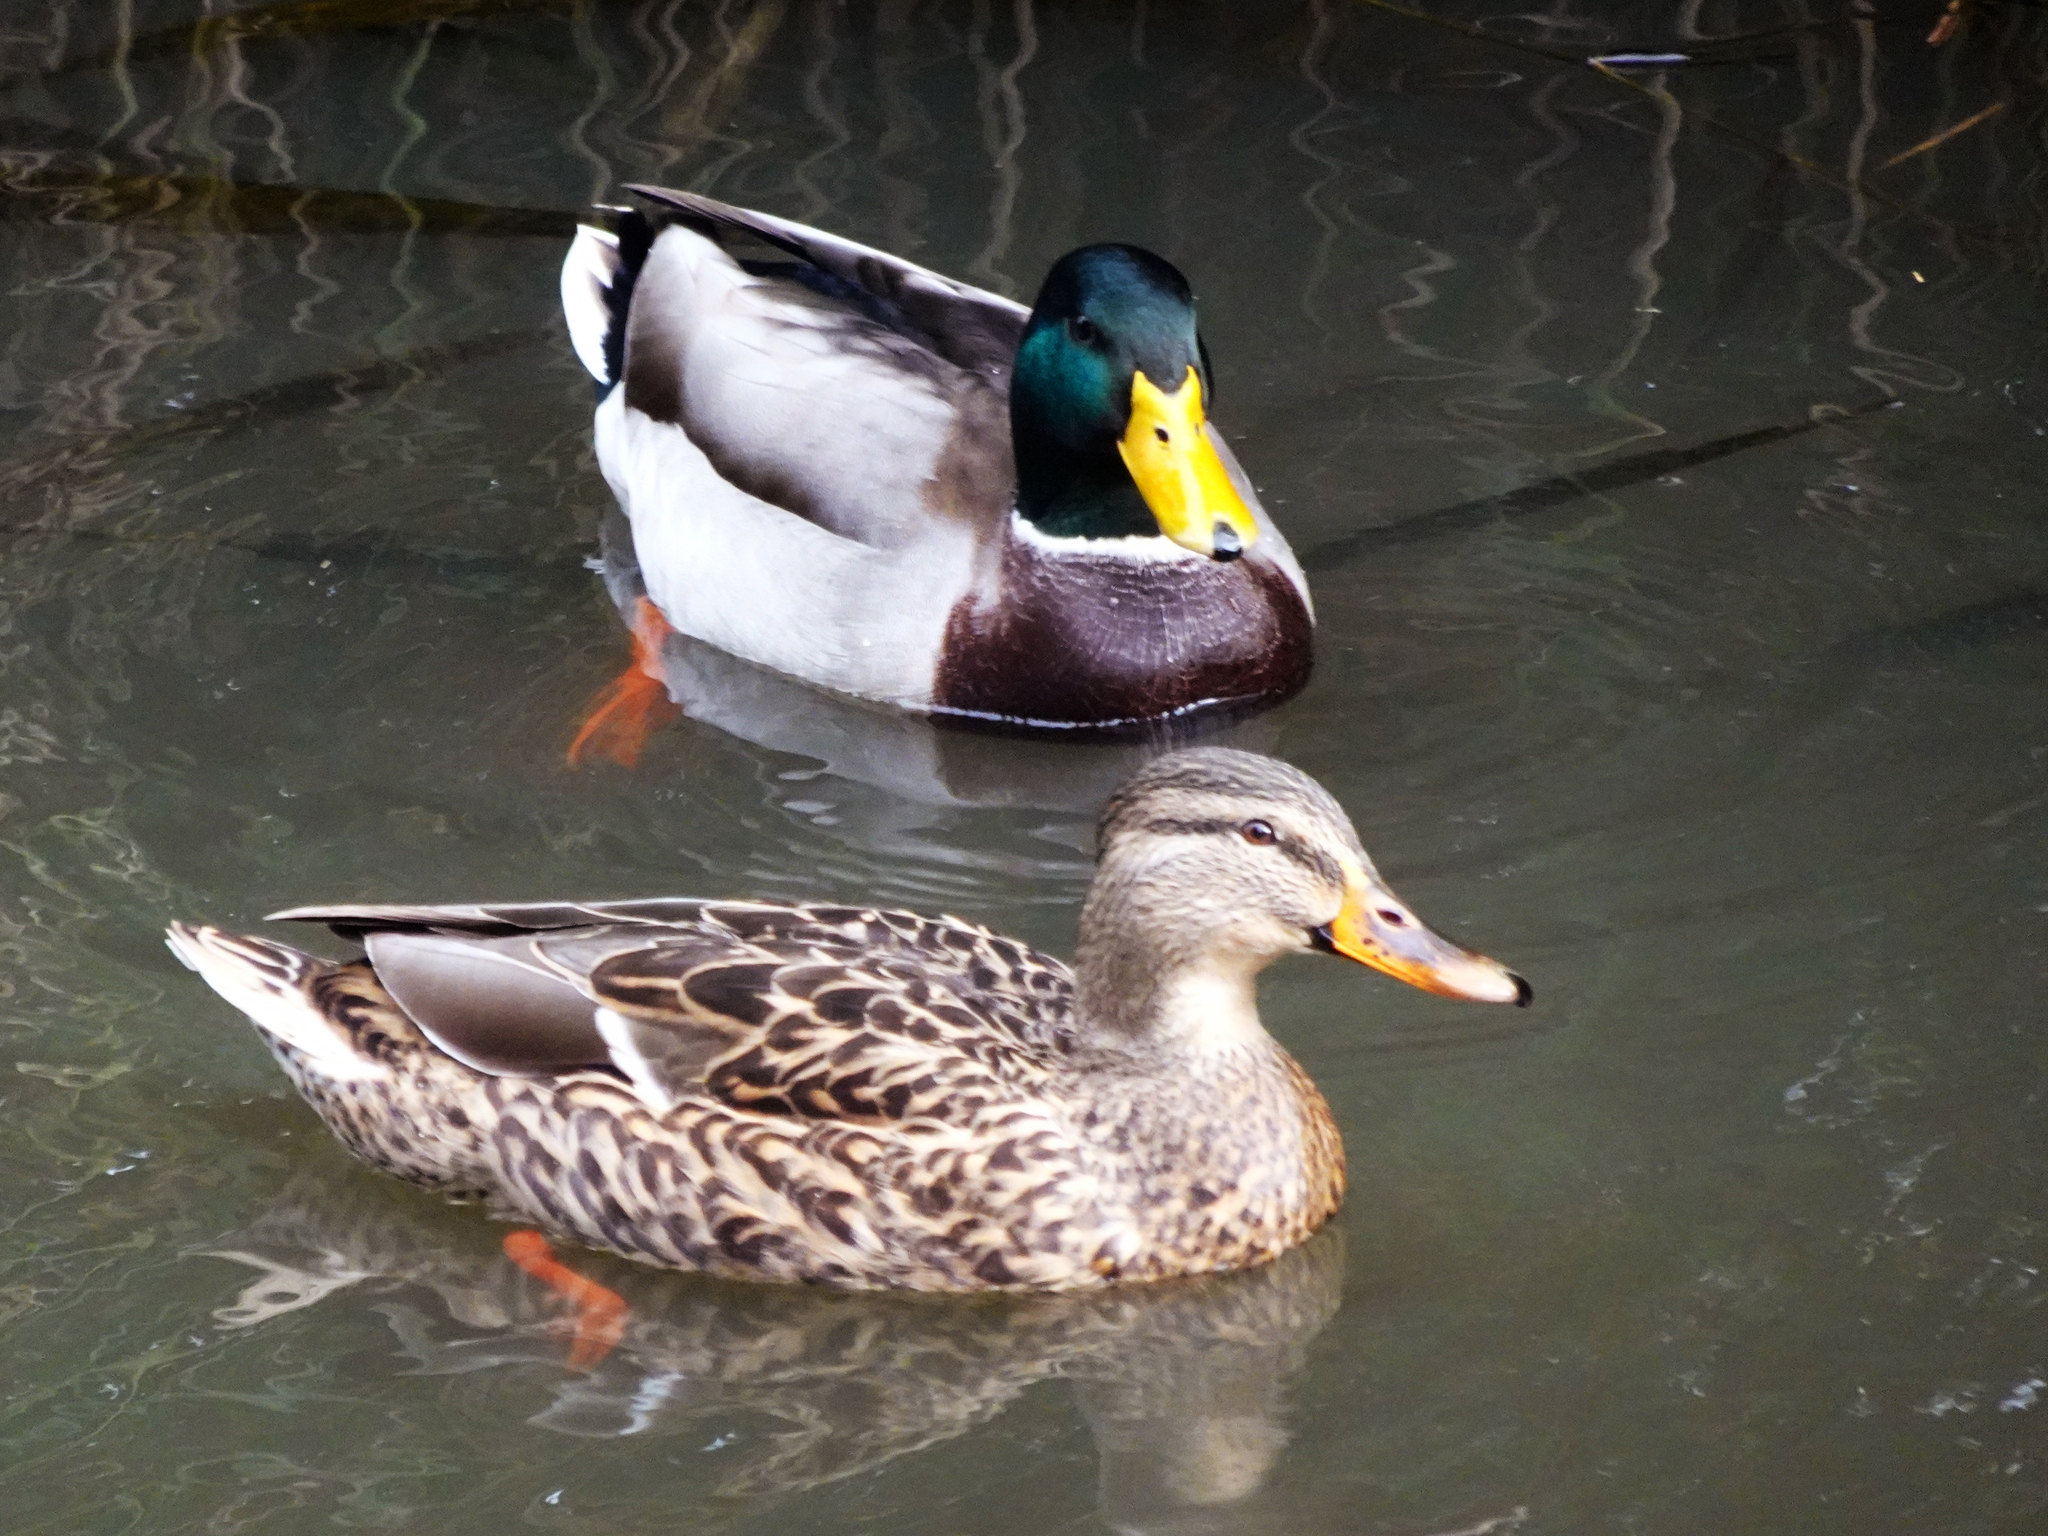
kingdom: Animalia
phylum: Chordata
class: Aves
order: Anseriformes
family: Anatidae
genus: Anas
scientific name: Anas platyrhynchos
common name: Mallard
